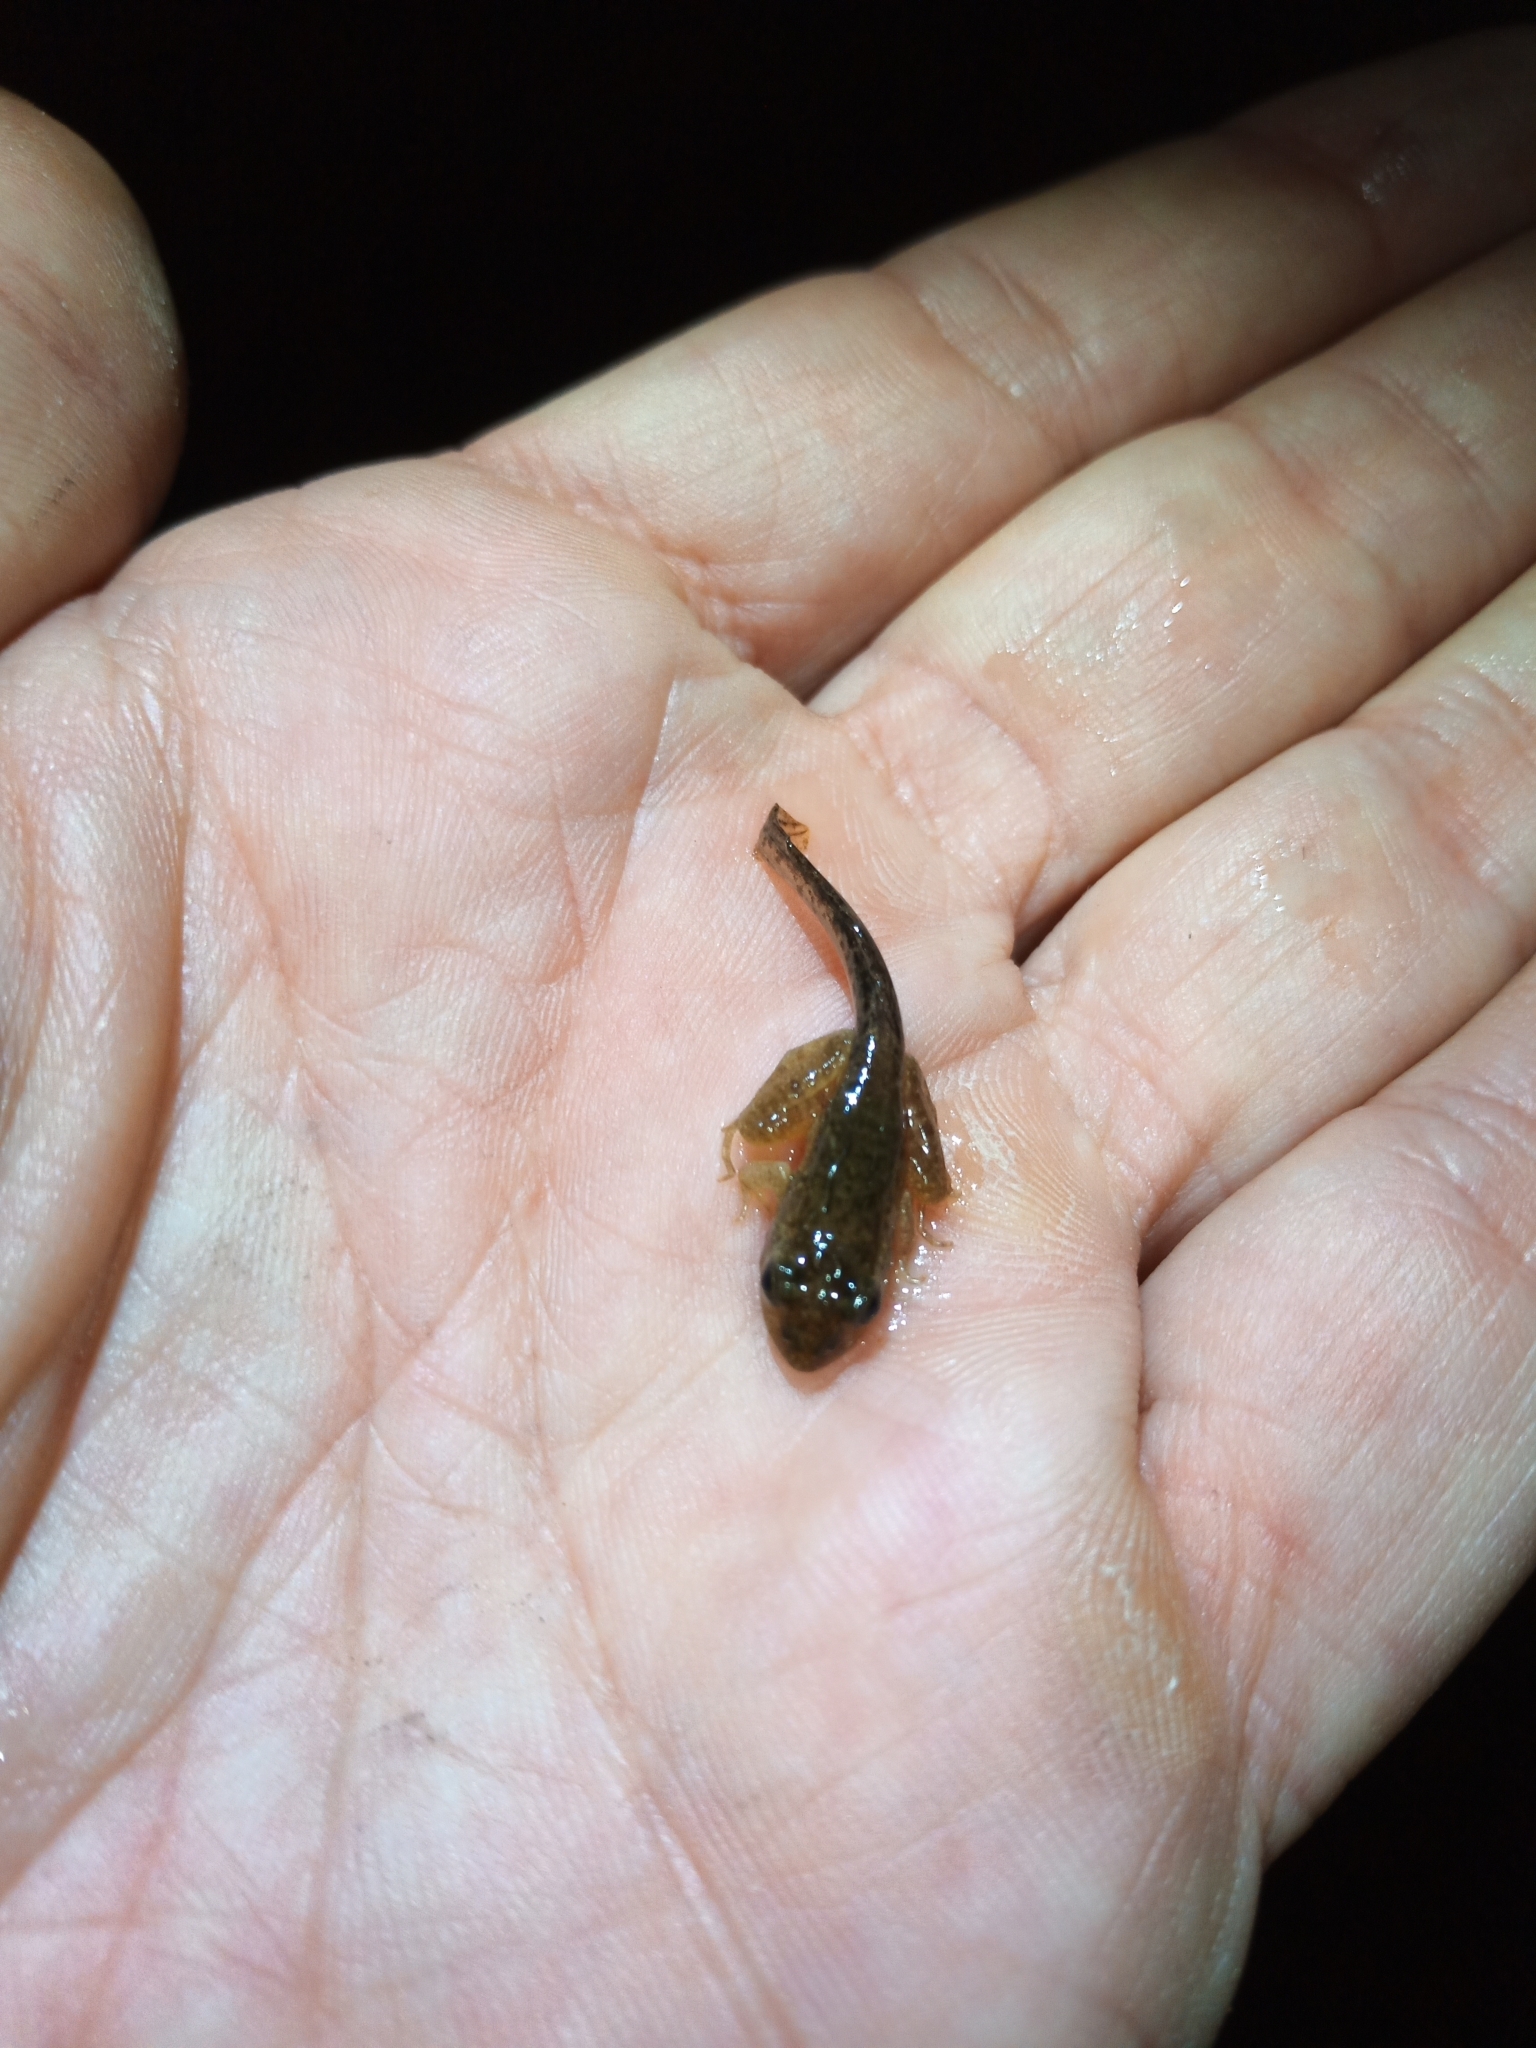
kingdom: Animalia
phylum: Chordata
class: Amphibia
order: Anura
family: Pyxicephalidae
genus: Strongylopus
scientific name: Strongylopus grayii
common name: Gray's stream frog
